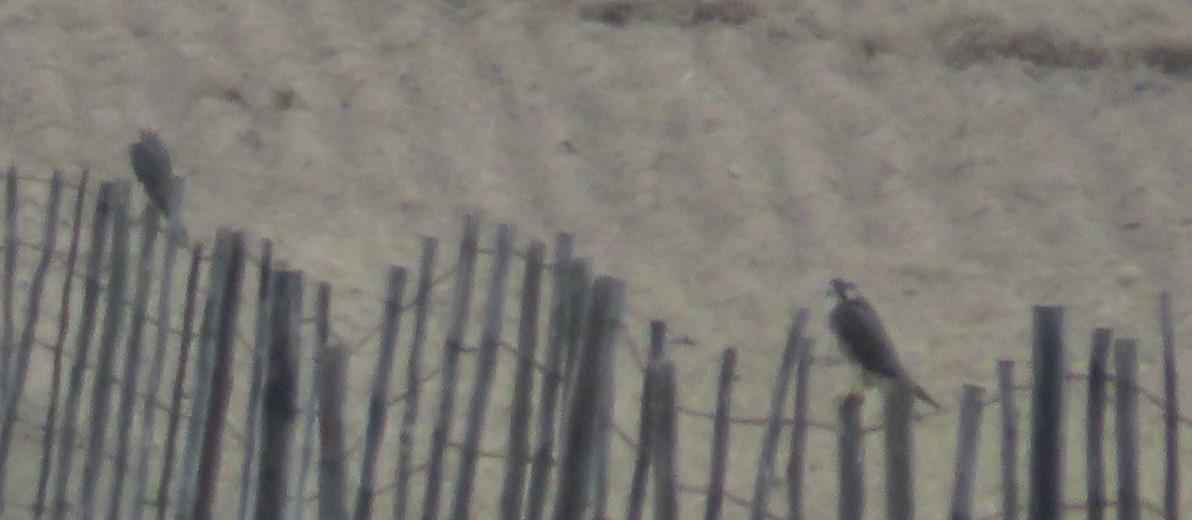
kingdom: Animalia
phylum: Chordata
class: Aves
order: Falconiformes
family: Falconidae
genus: Falco
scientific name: Falco biarmicus
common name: Lanner falcon
